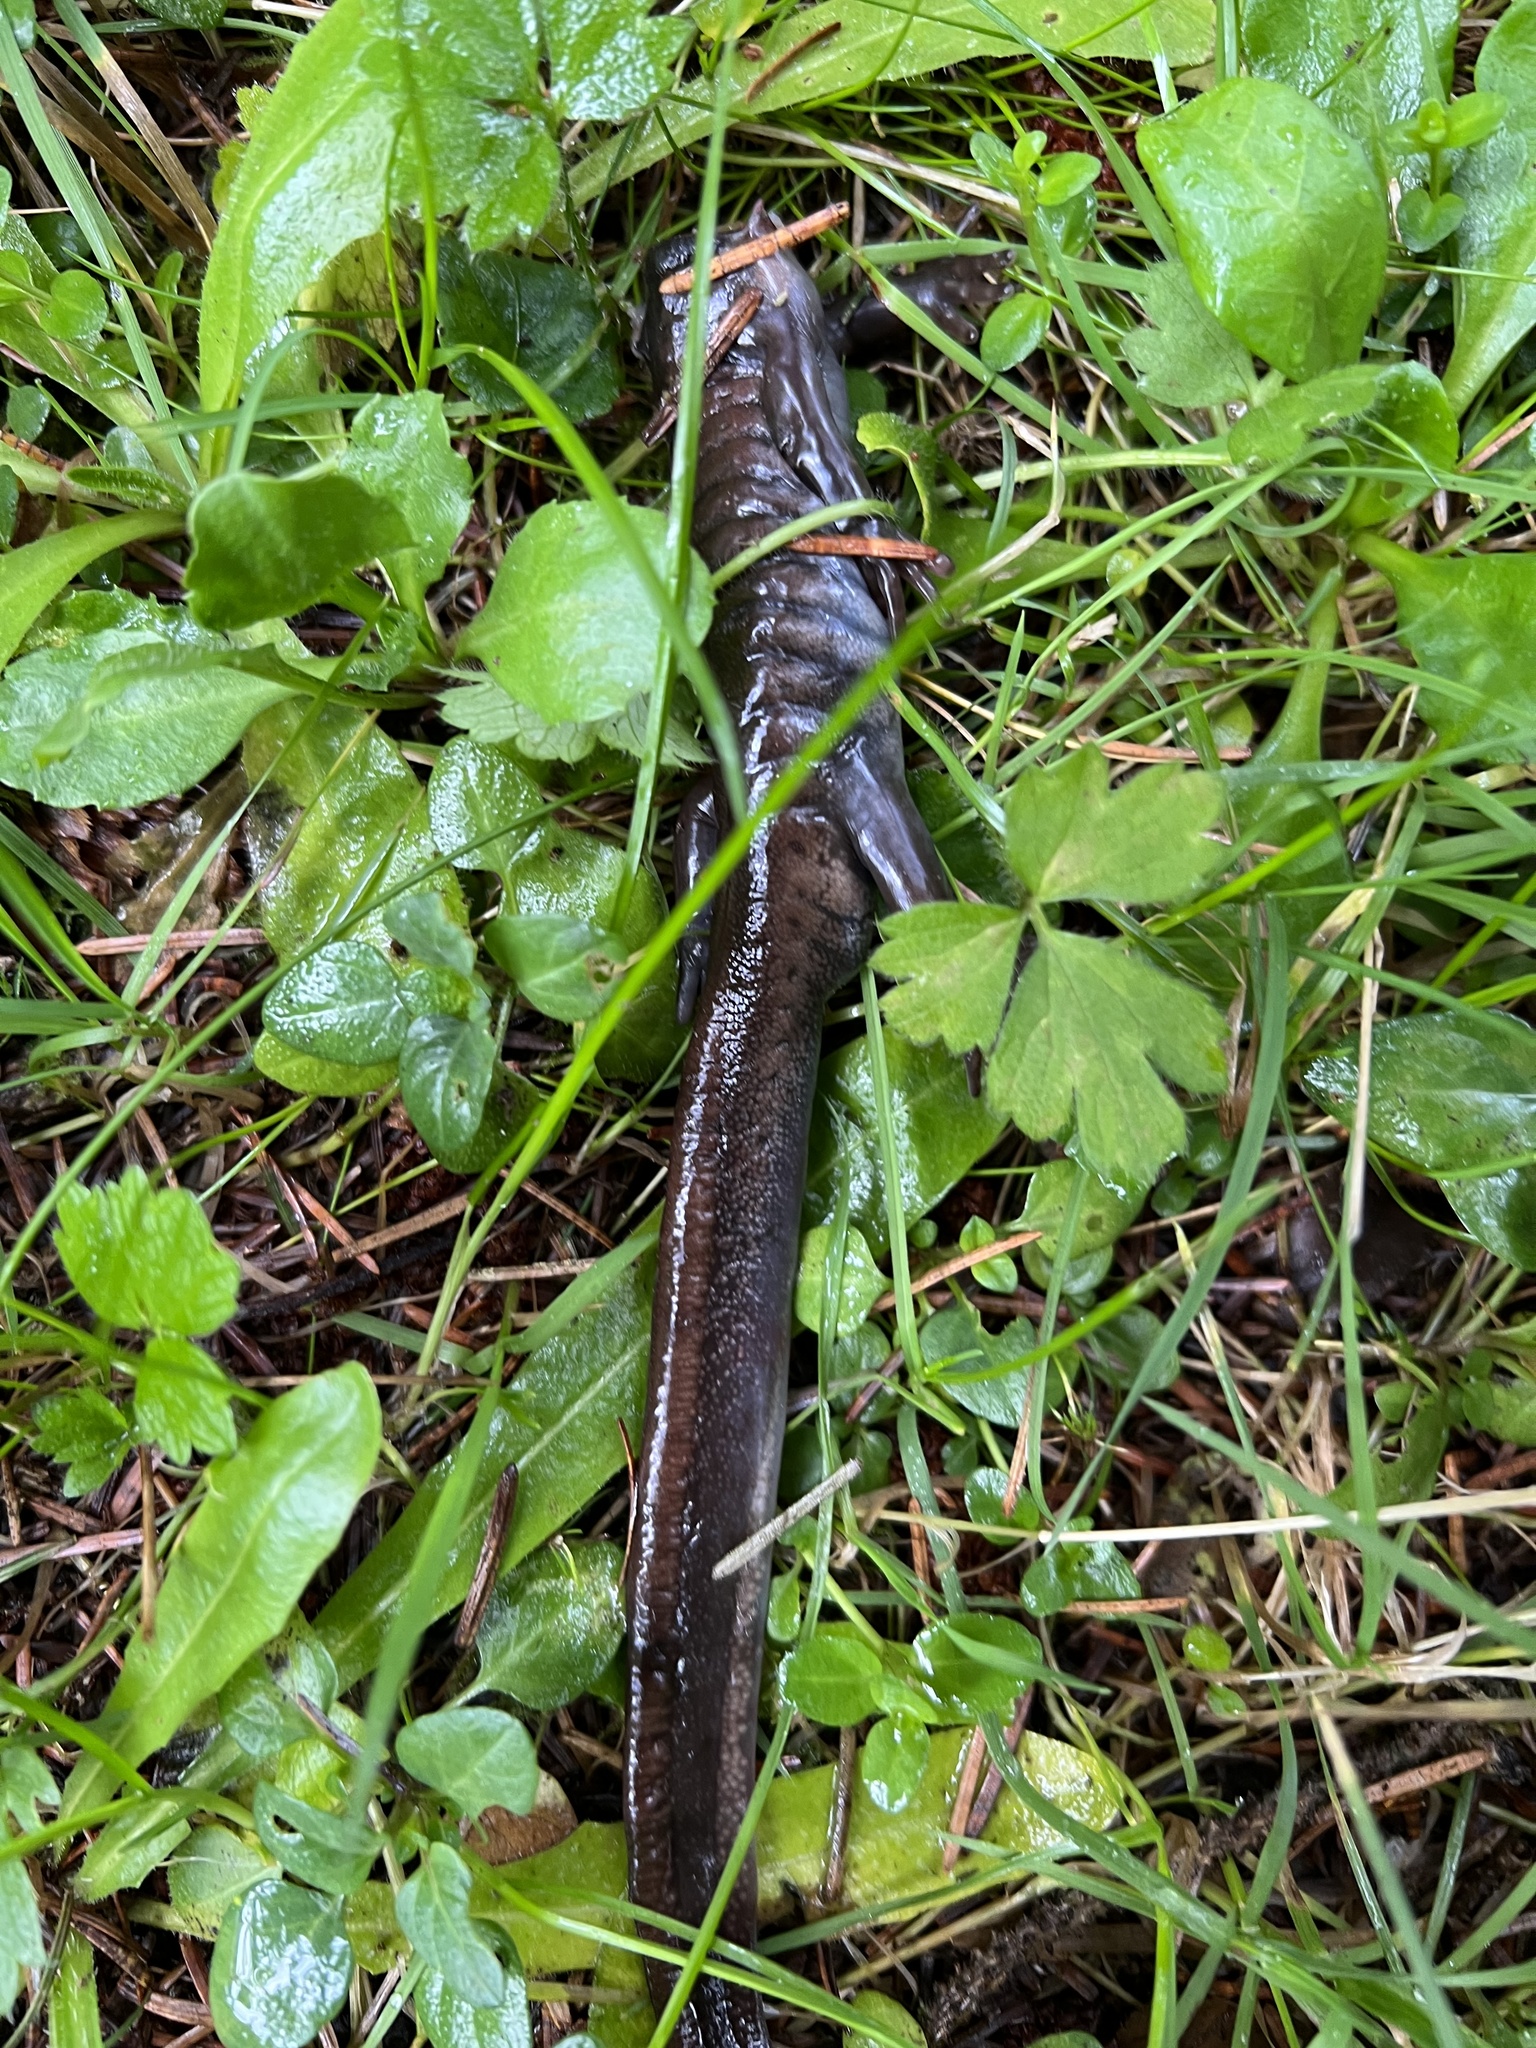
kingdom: Animalia
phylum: Chordata
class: Amphibia
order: Caudata
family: Ambystomatidae
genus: Ambystoma
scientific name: Ambystoma gracile
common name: Northwestern salamander
